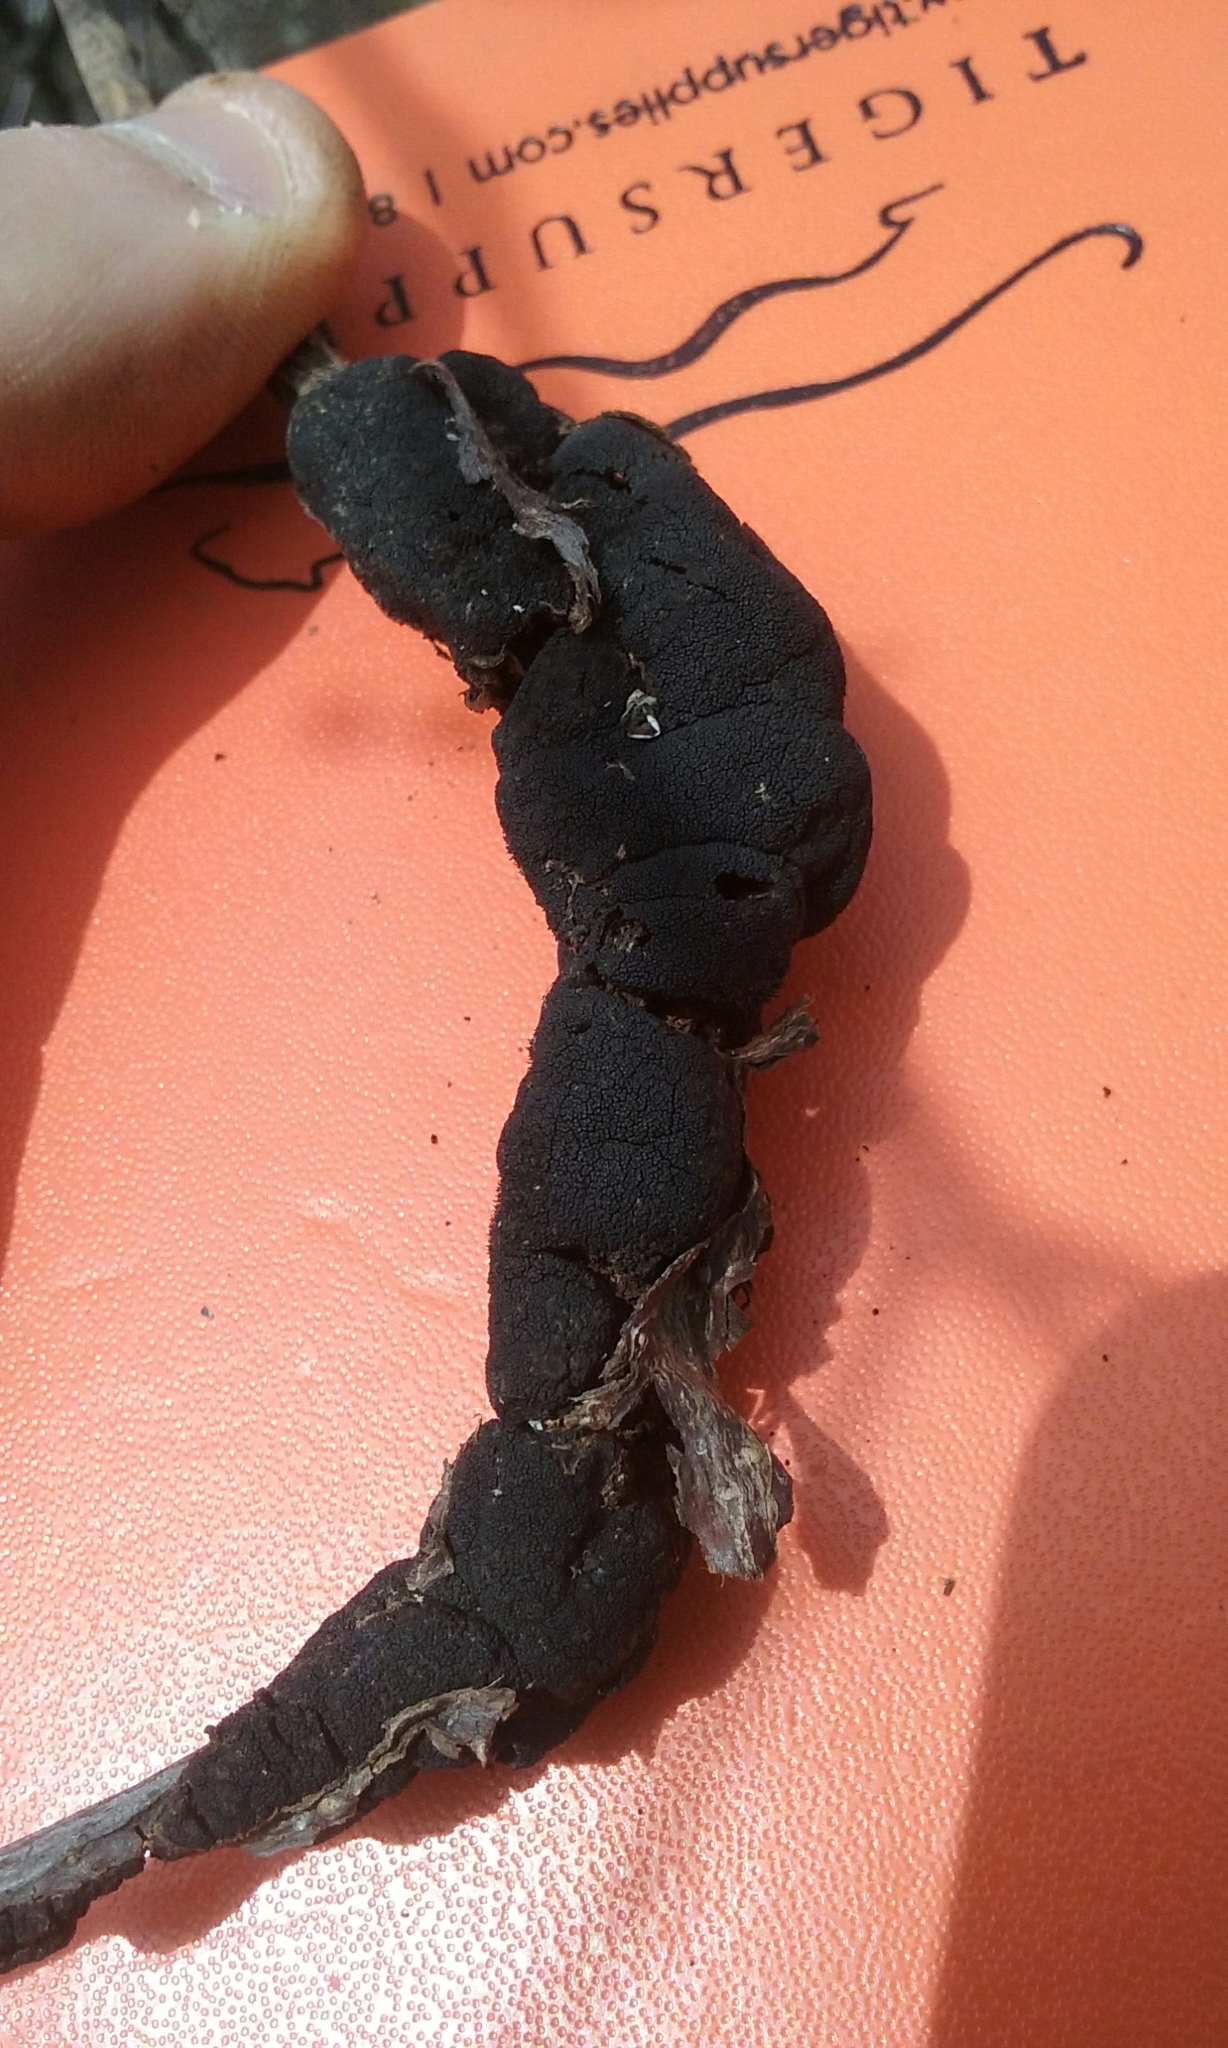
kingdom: Fungi
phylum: Ascomycota
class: Dothideomycetes
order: Venturiales
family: Venturiaceae
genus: Apiosporina
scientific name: Apiosporina morbosa
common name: Black knot
